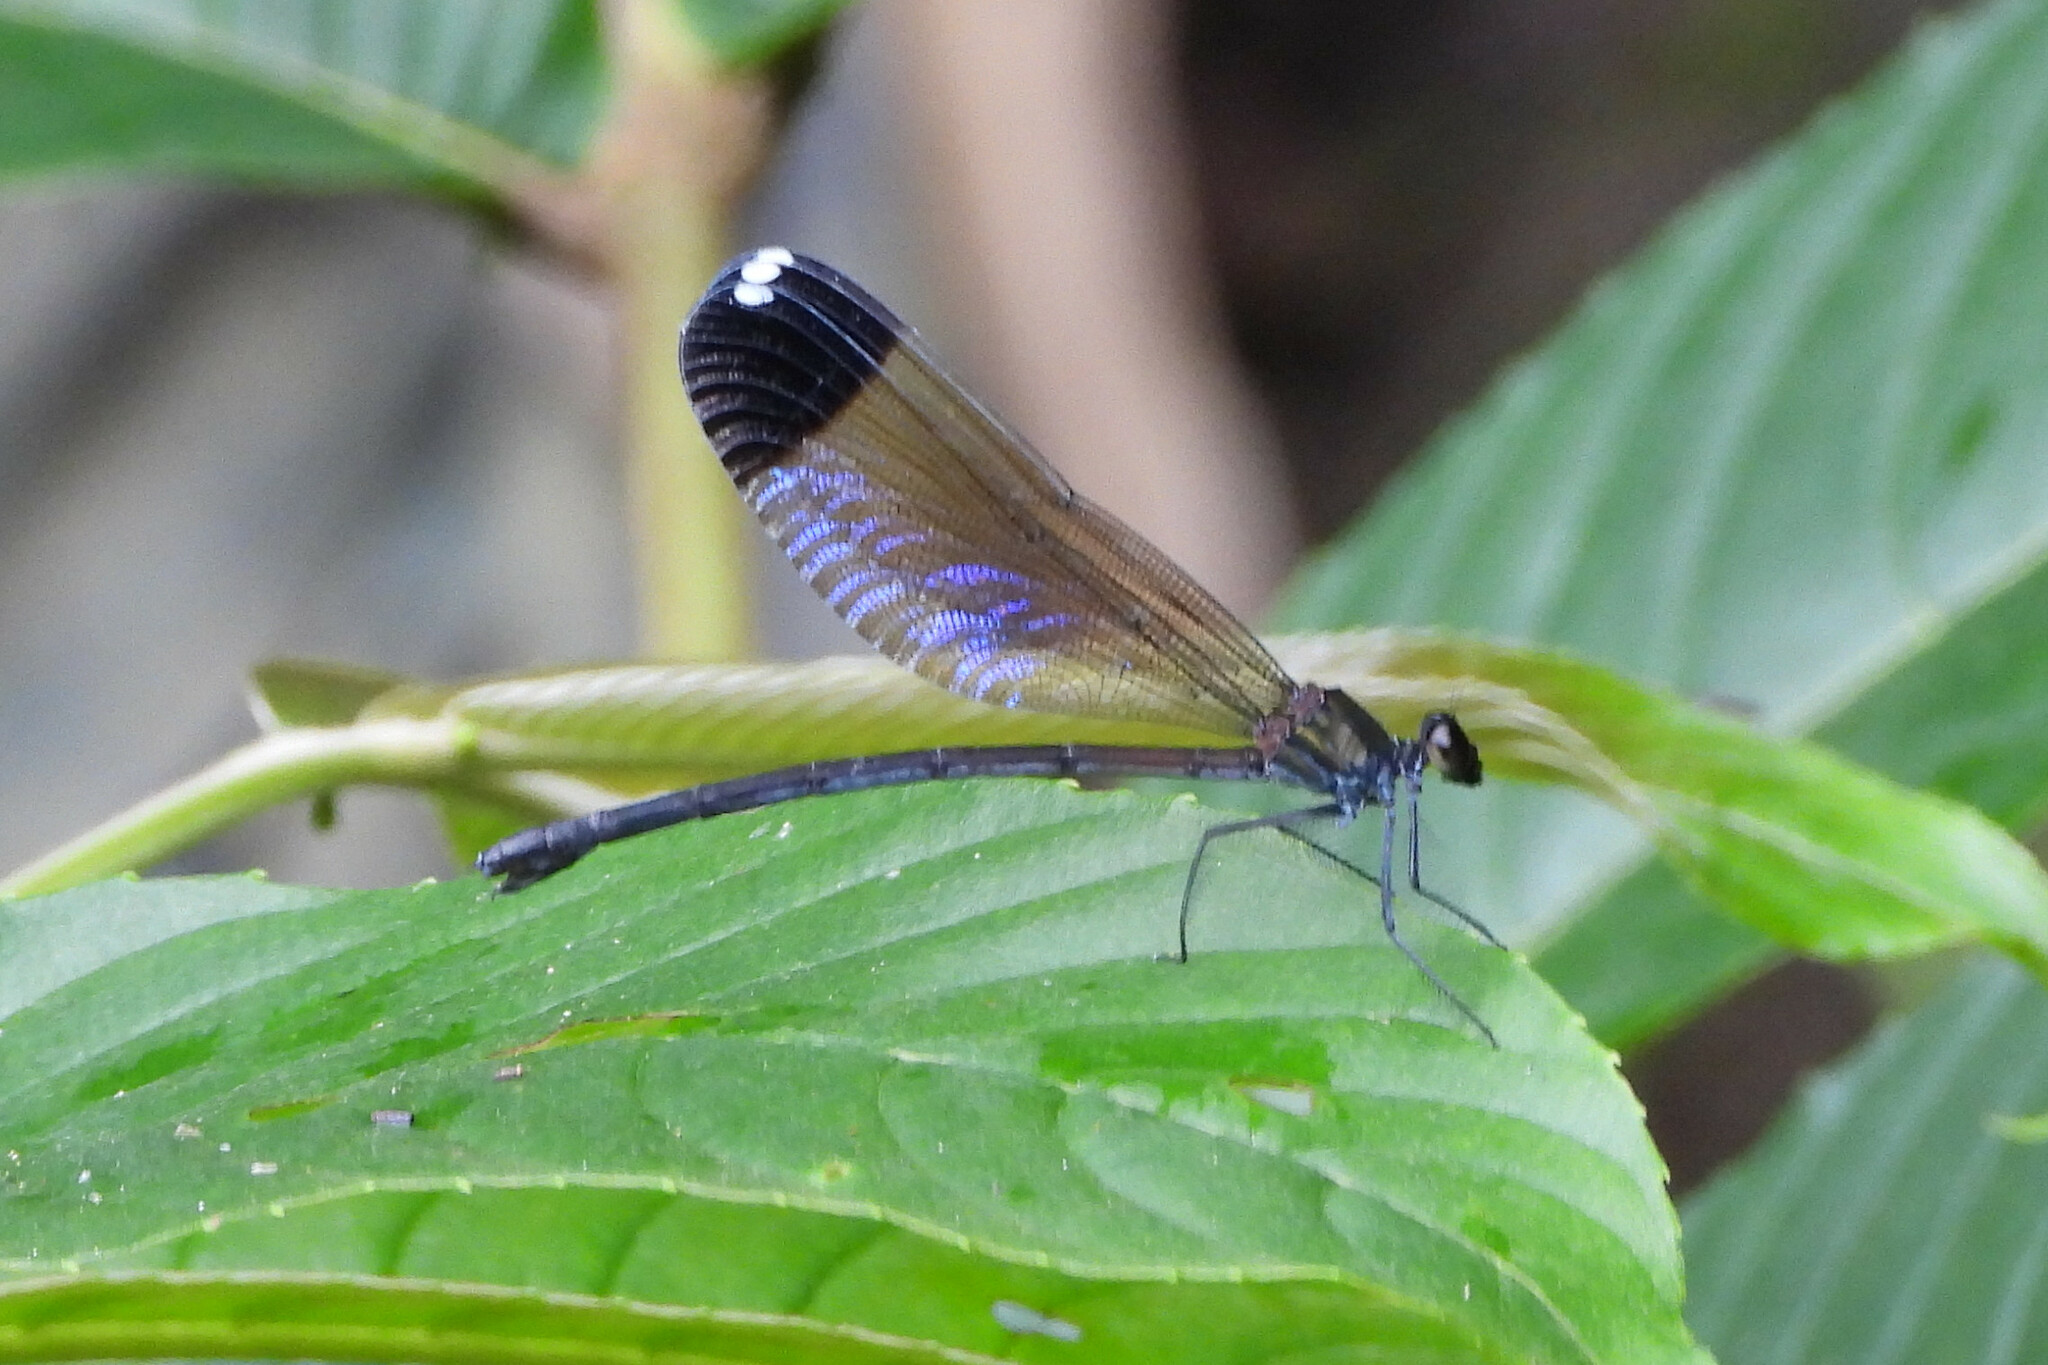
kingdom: Animalia
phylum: Arthropoda
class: Insecta
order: Odonata
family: Calopterygidae
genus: Echo
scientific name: Echo margarita
